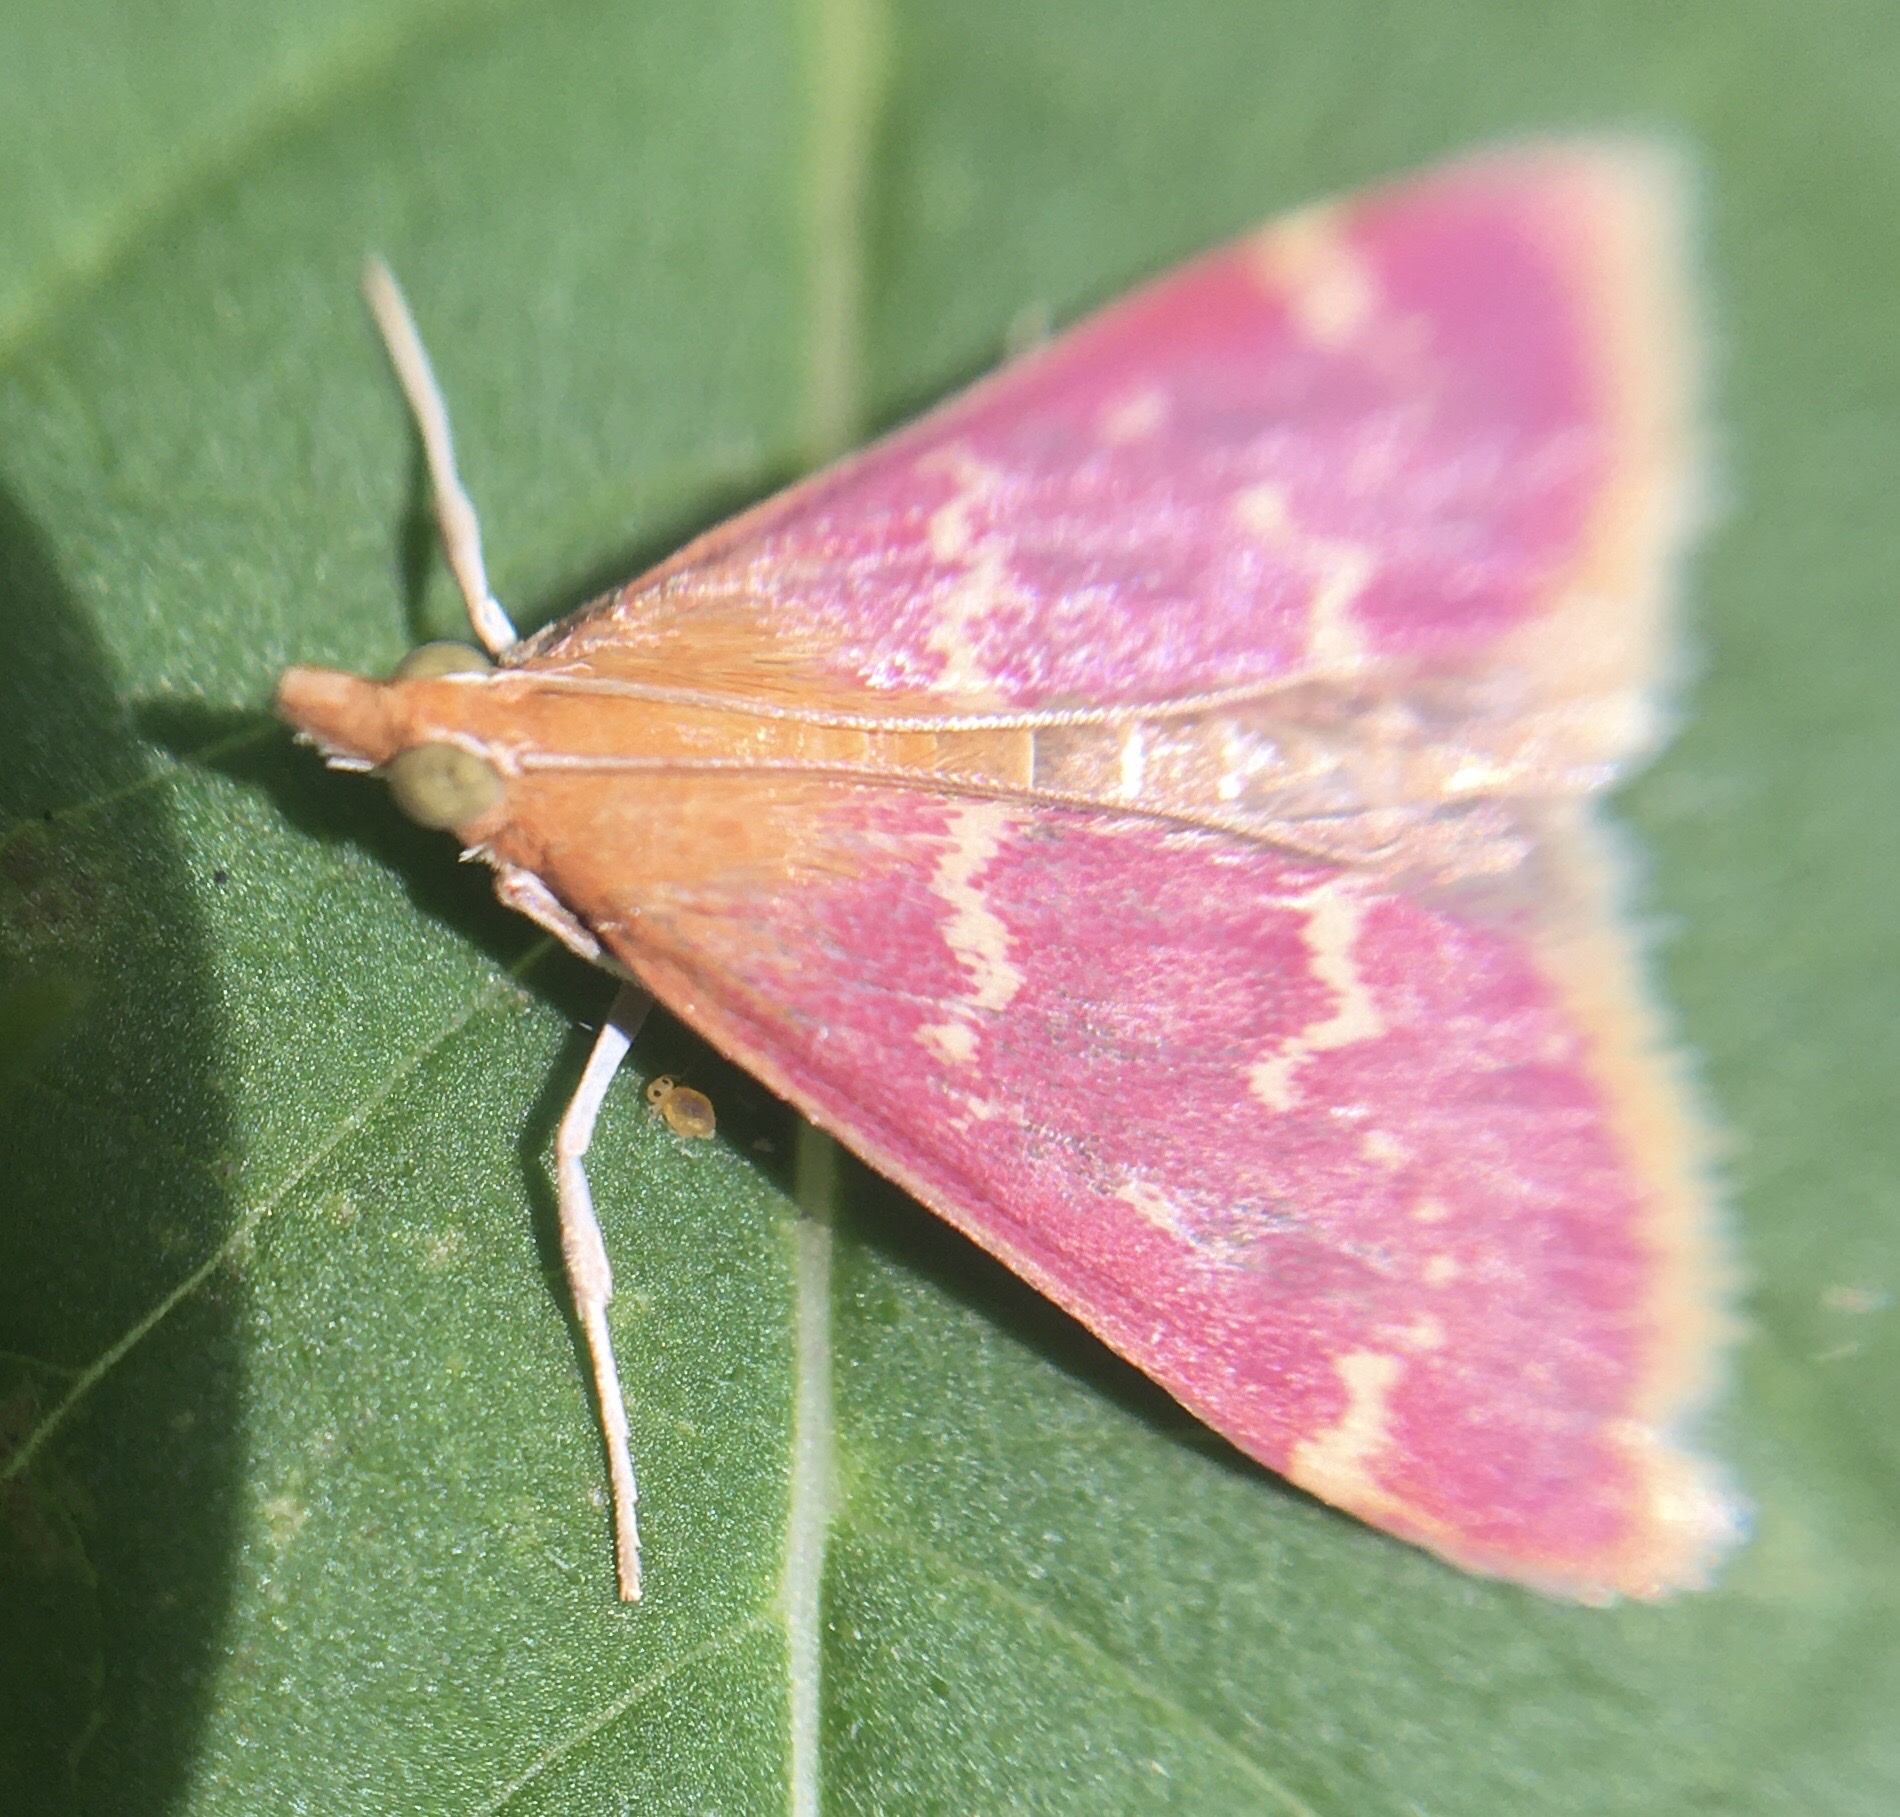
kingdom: Animalia
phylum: Arthropoda
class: Insecta
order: Lepidoptera
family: Crambidae
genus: Pyrausta
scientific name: Pyrausta signatalis
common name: Raspberry pyrausta moth
